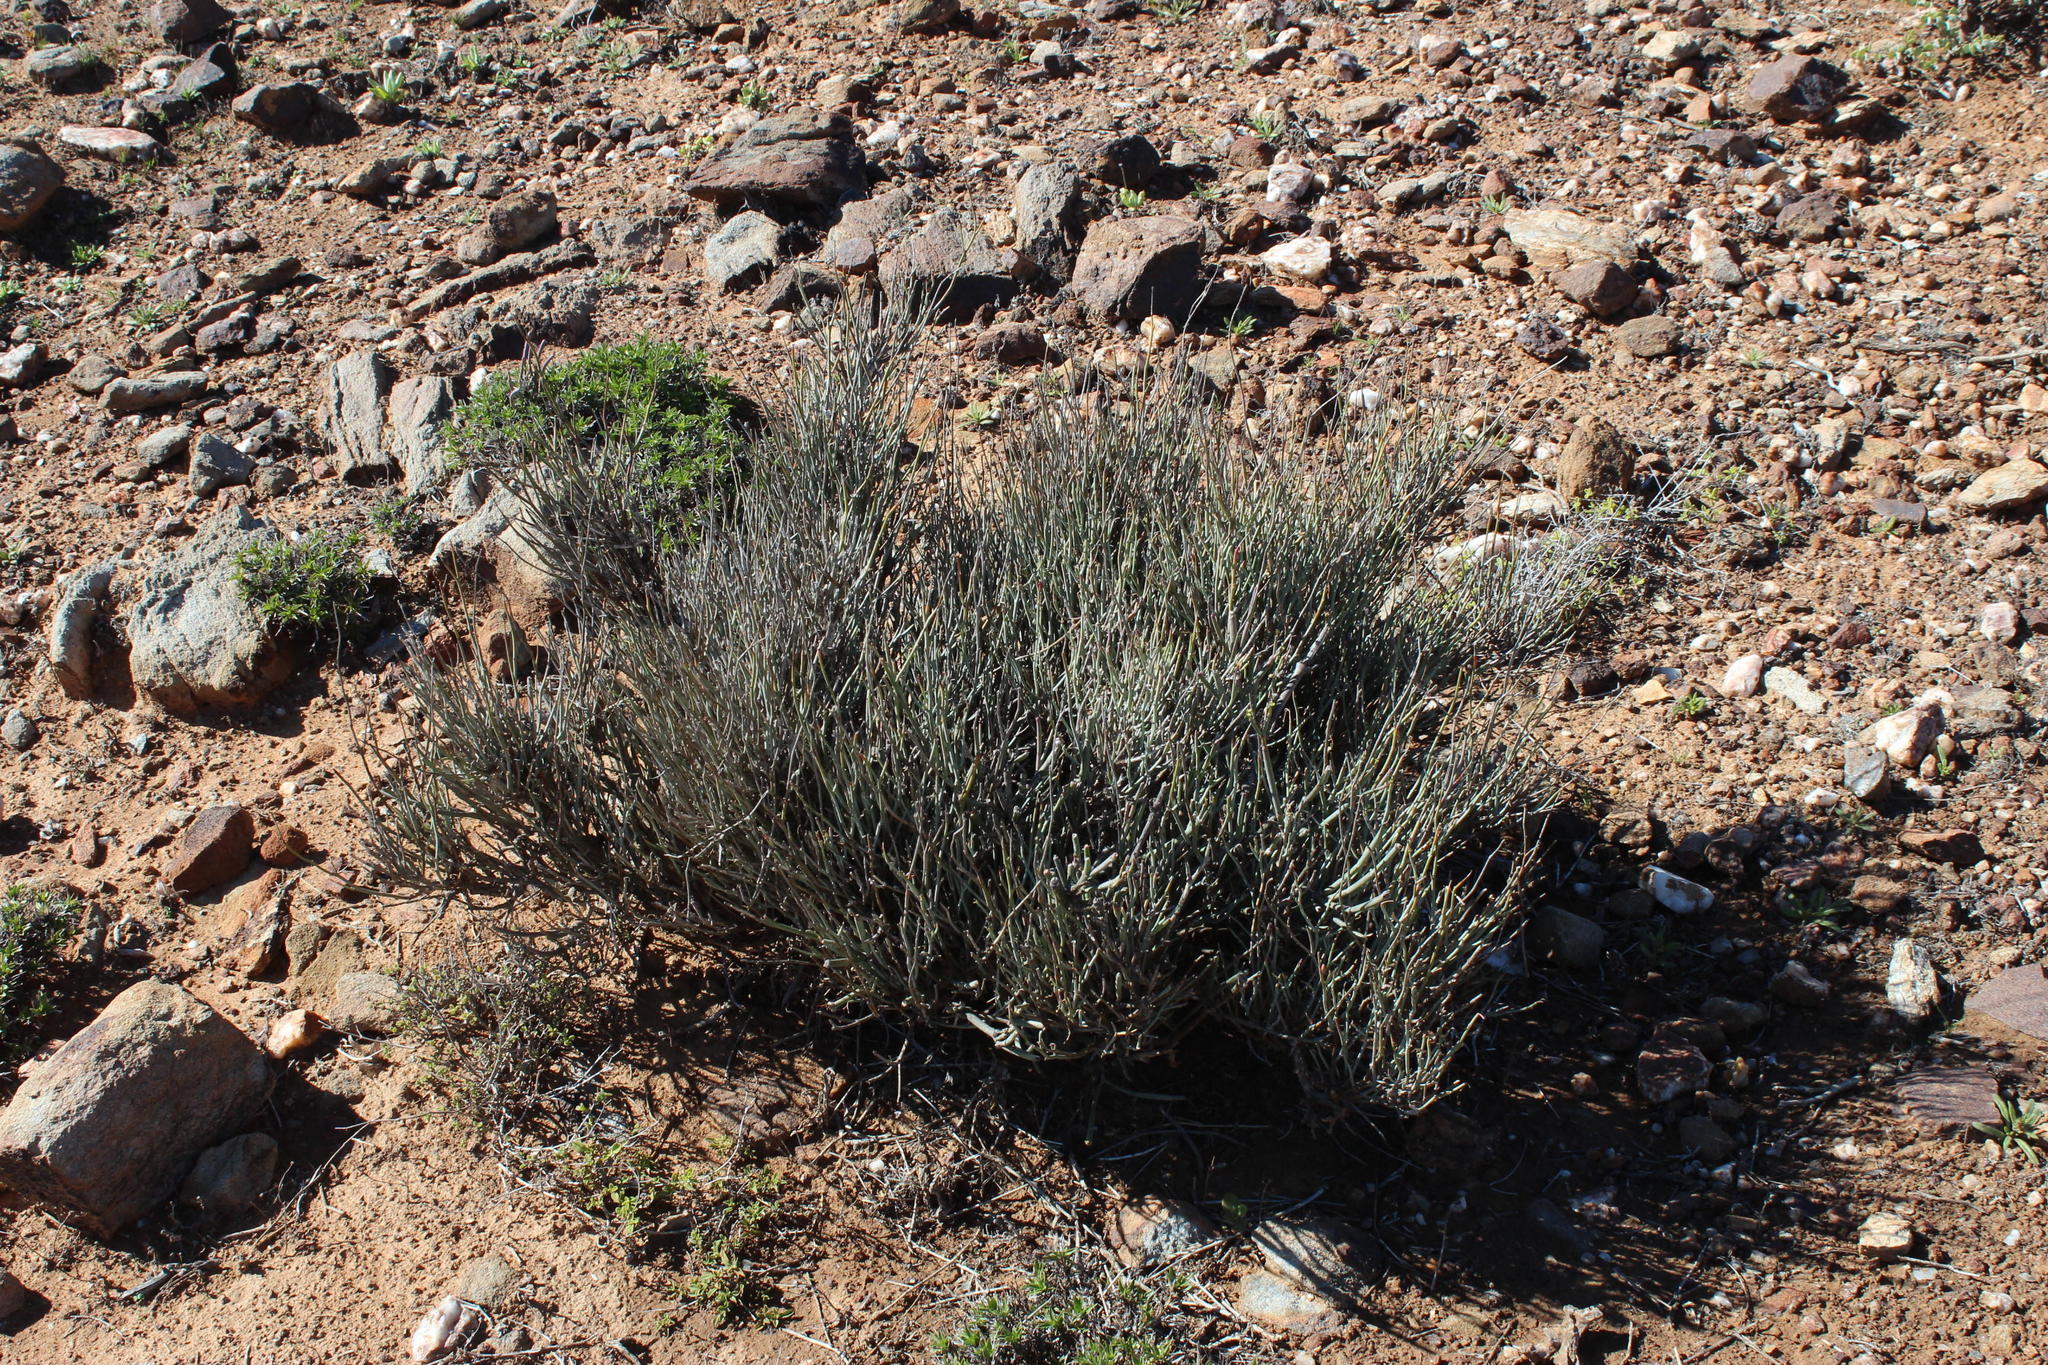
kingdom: Plantae
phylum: Tracheophyta
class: Magnoliopsida
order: Malpighiales
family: Euphorbiaceae
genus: Euphorbia
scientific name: Euphorbia ephedroides
